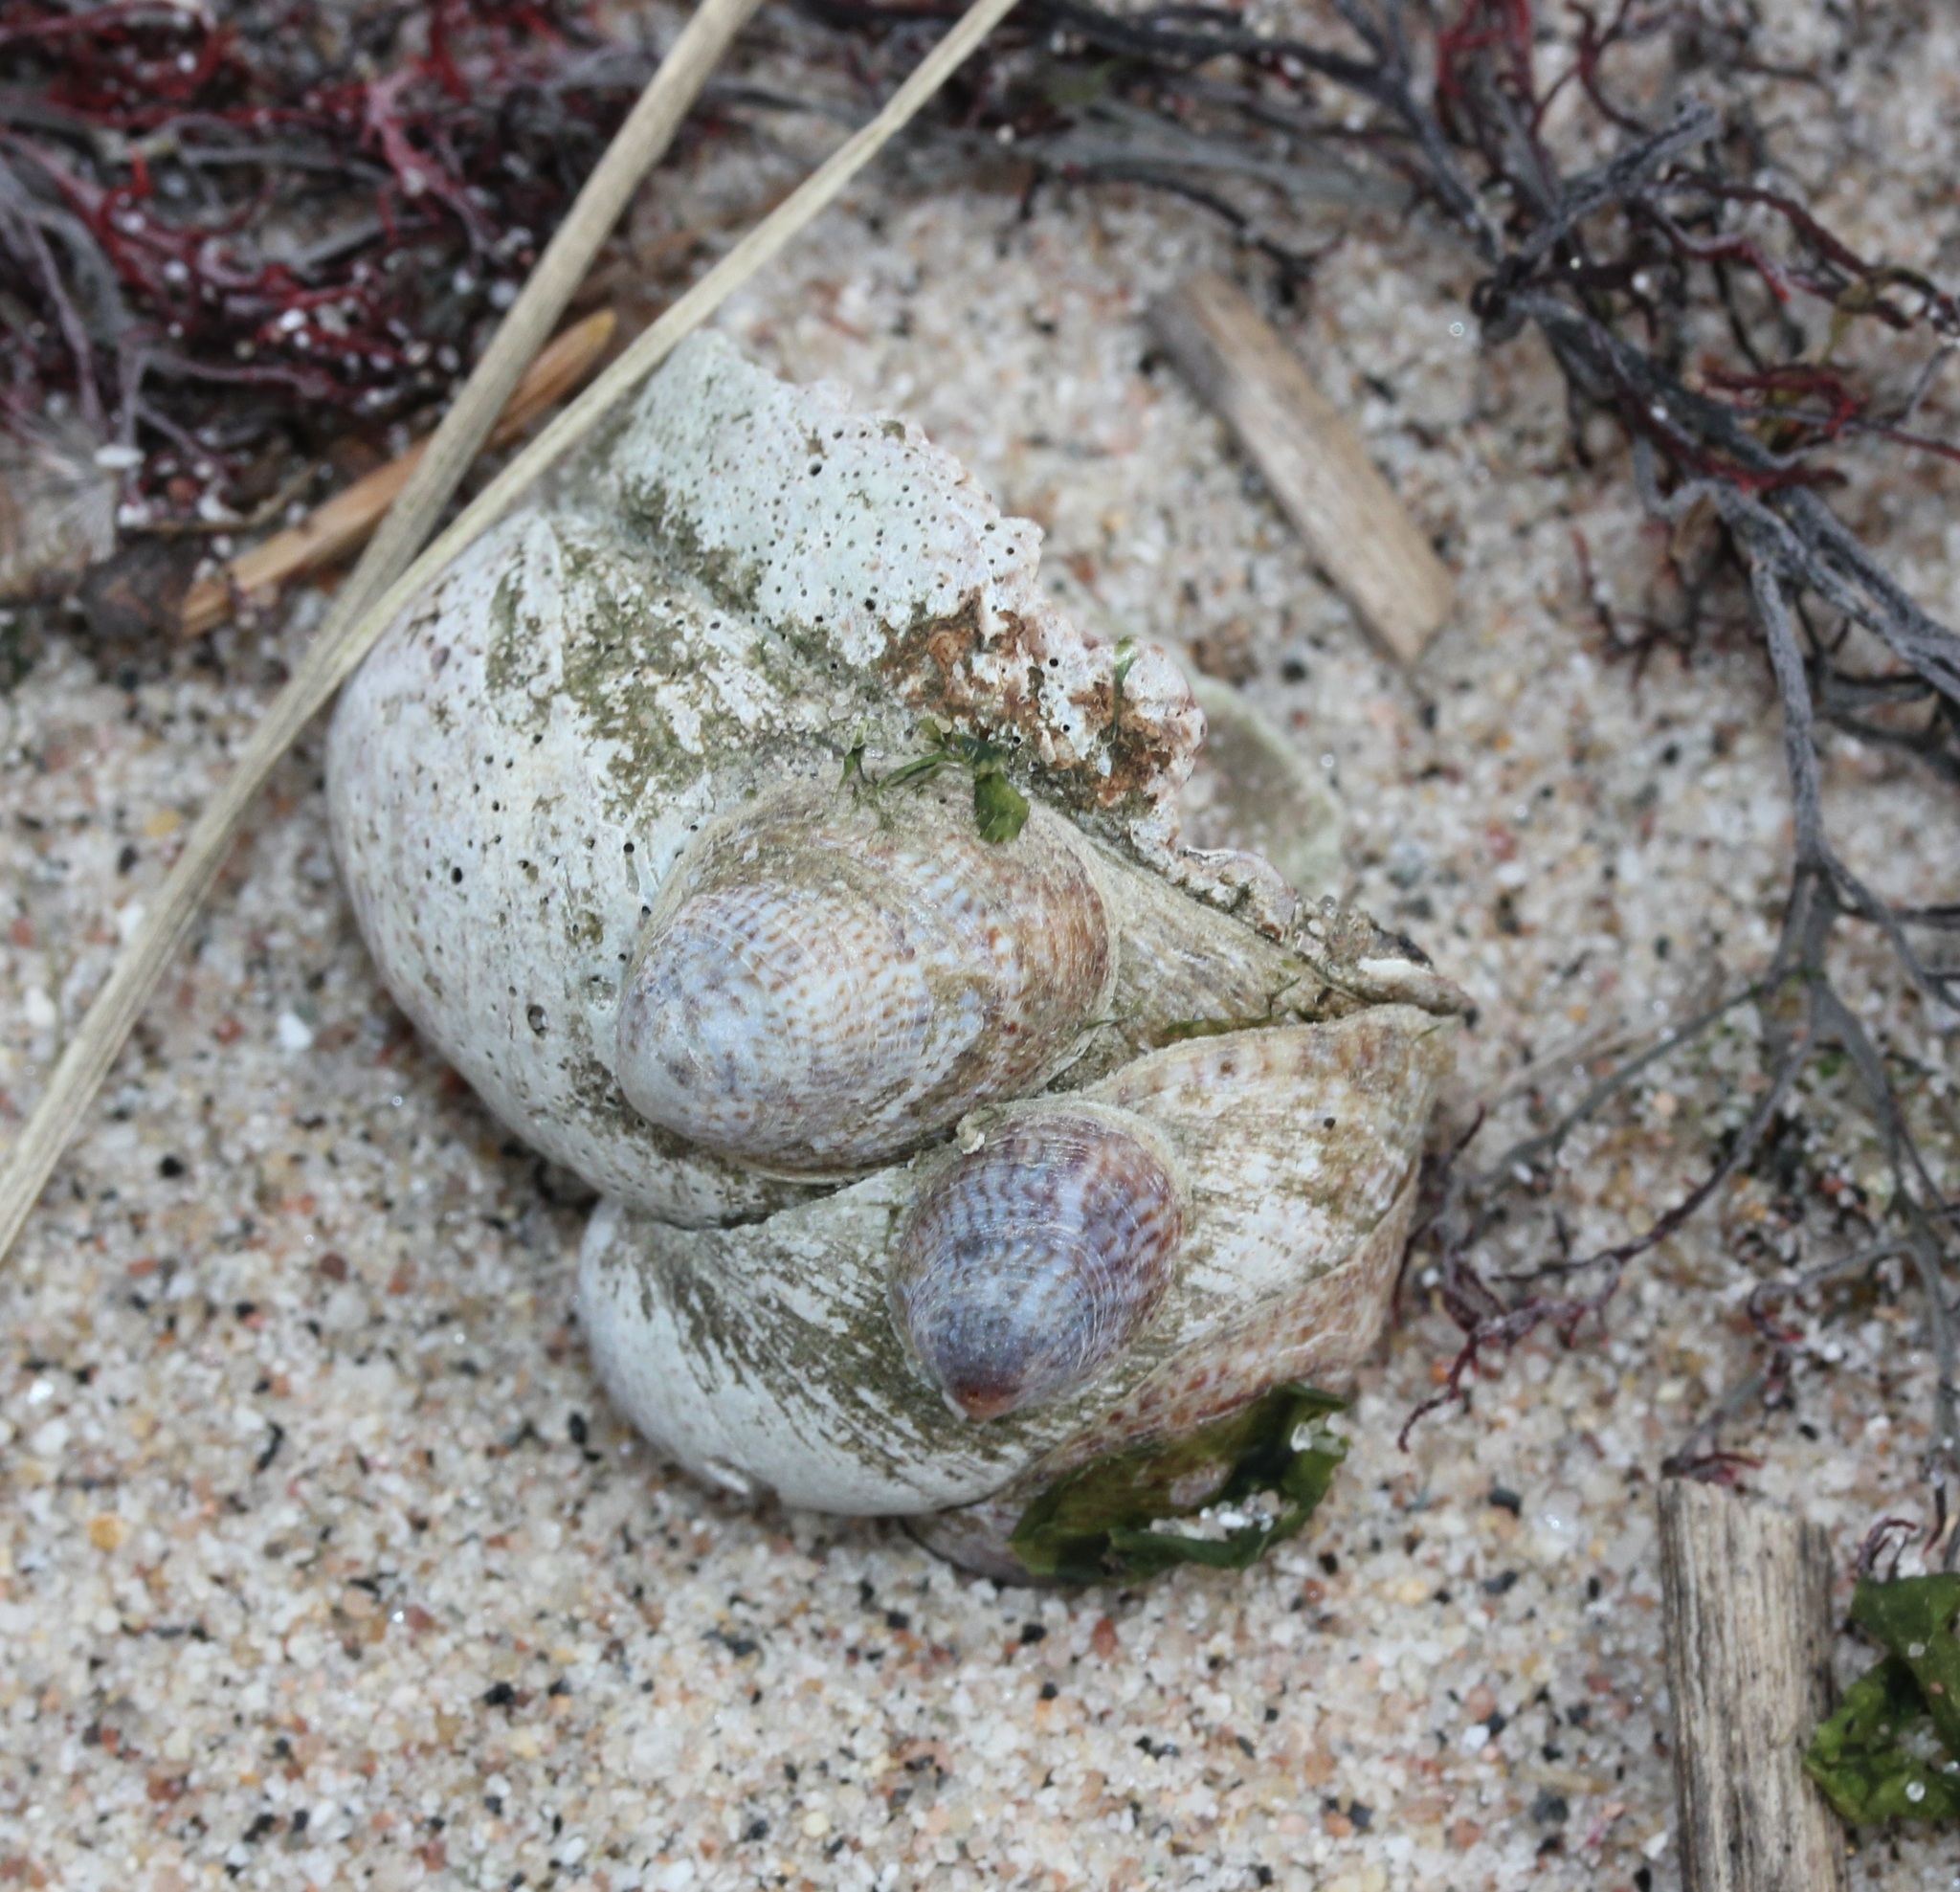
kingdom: Animalia
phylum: Mollusca
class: Gastropoda
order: Littorinimorpha
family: Calyptraeidae
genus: Crepidula
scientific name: Crepidula fornicata
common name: Slipper limpet
